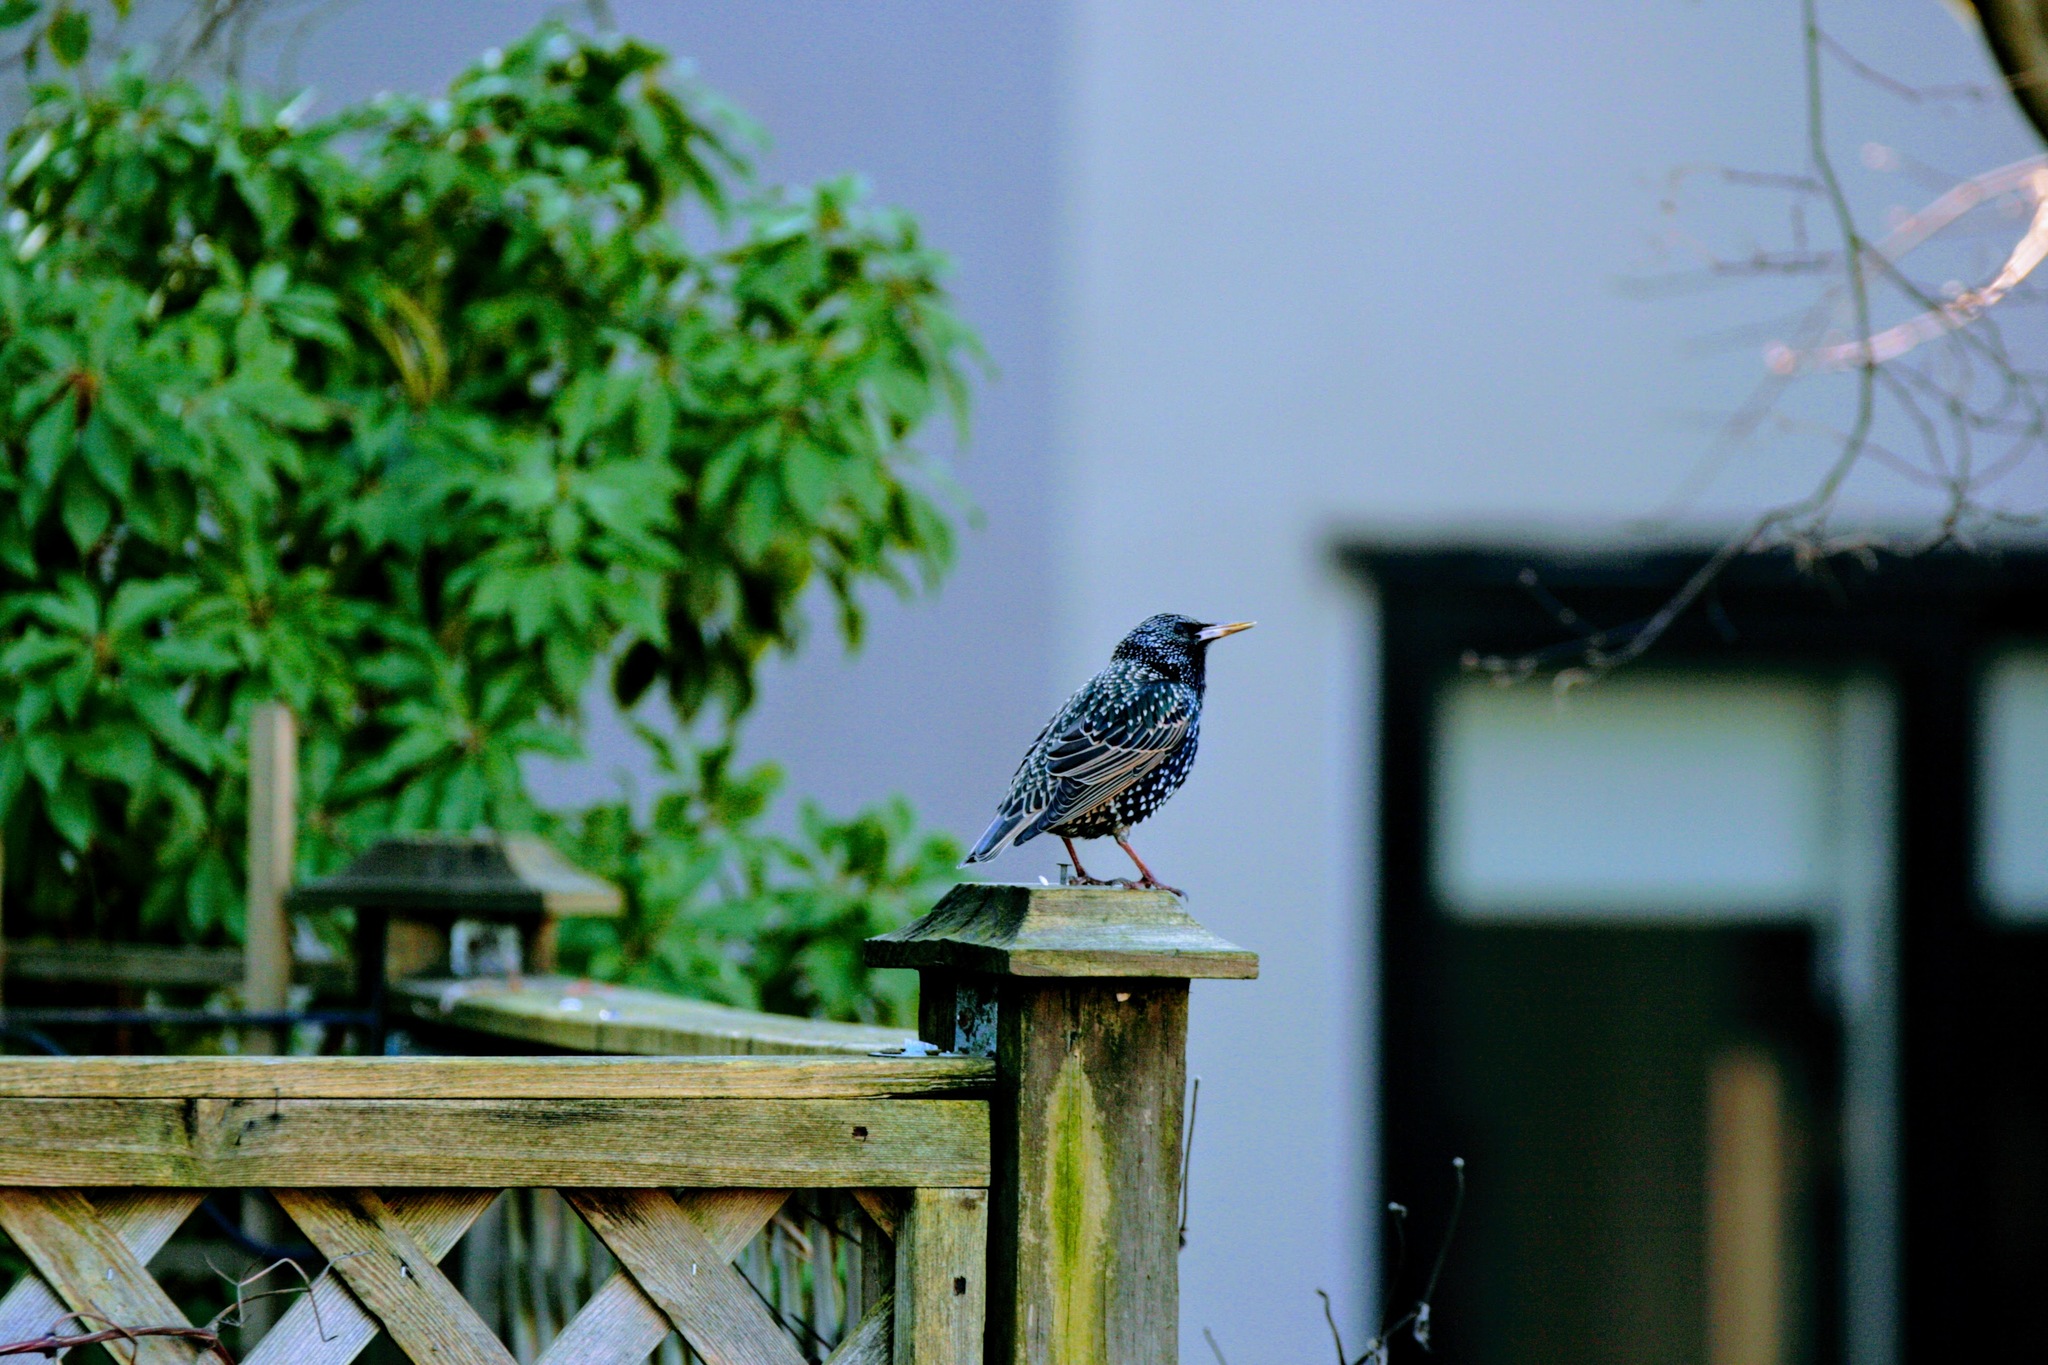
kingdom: Animalia
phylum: Chordata
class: Aves
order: Passeriformes
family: Sturnidae
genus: Sturnus
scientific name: Sturnus vulgaris
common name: Common starling
